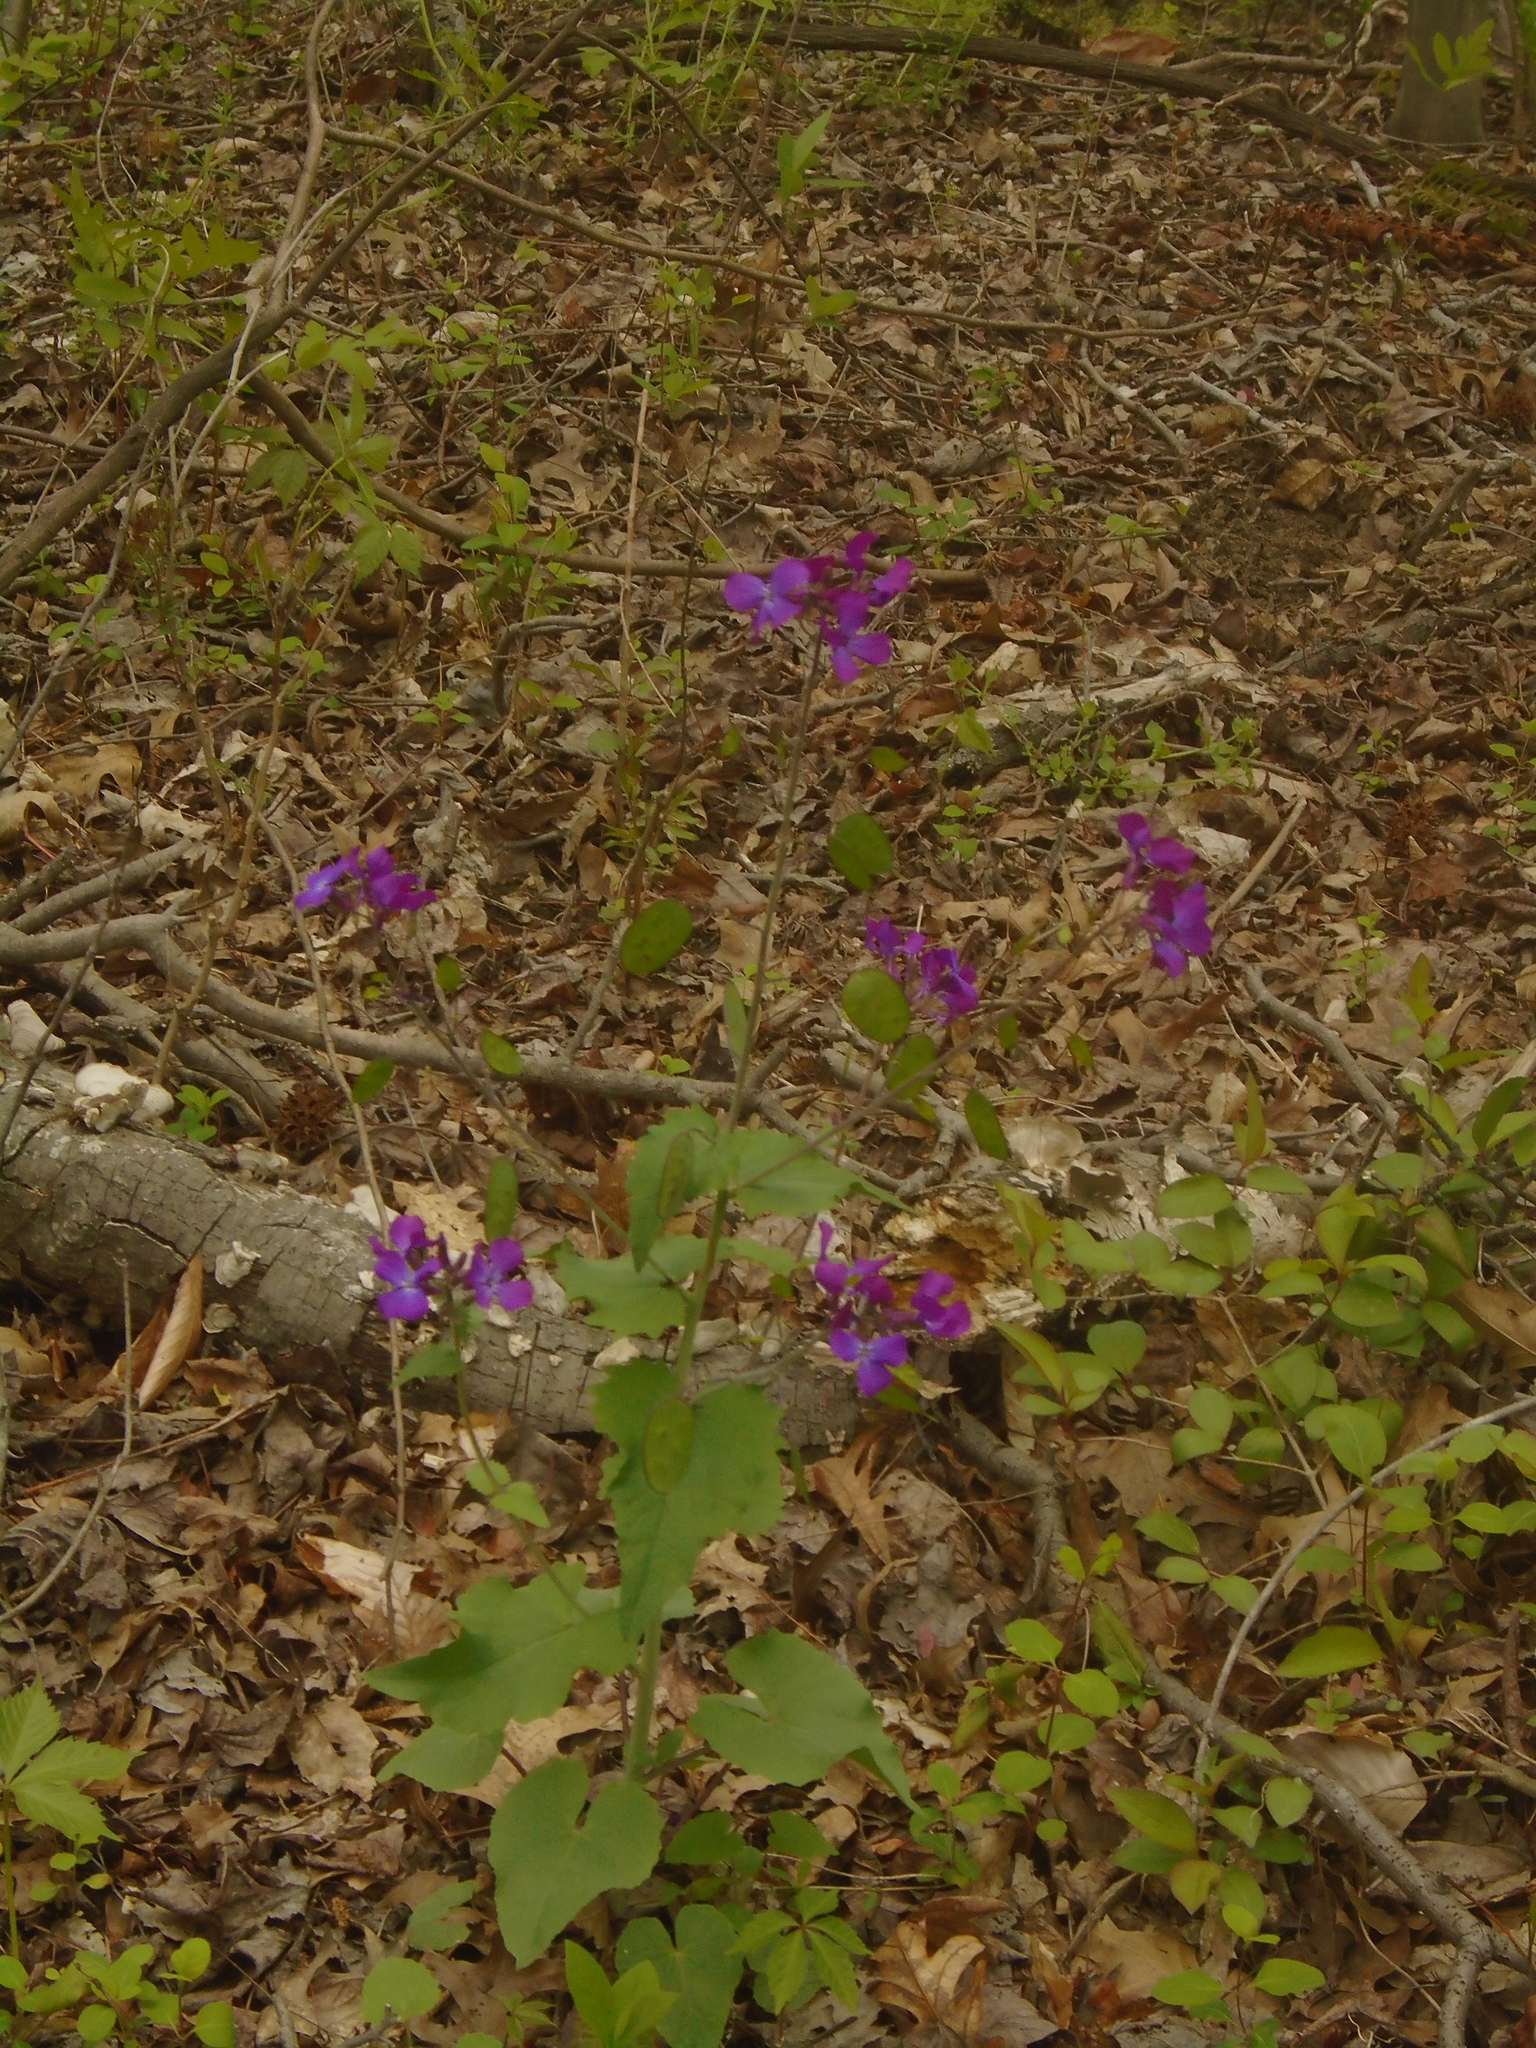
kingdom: Plantae
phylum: Tracheophyta
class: Magnoliopsida
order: Brassicales
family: Brassicaceae
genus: Lunaria
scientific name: Lunaria annua
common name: Honesty
